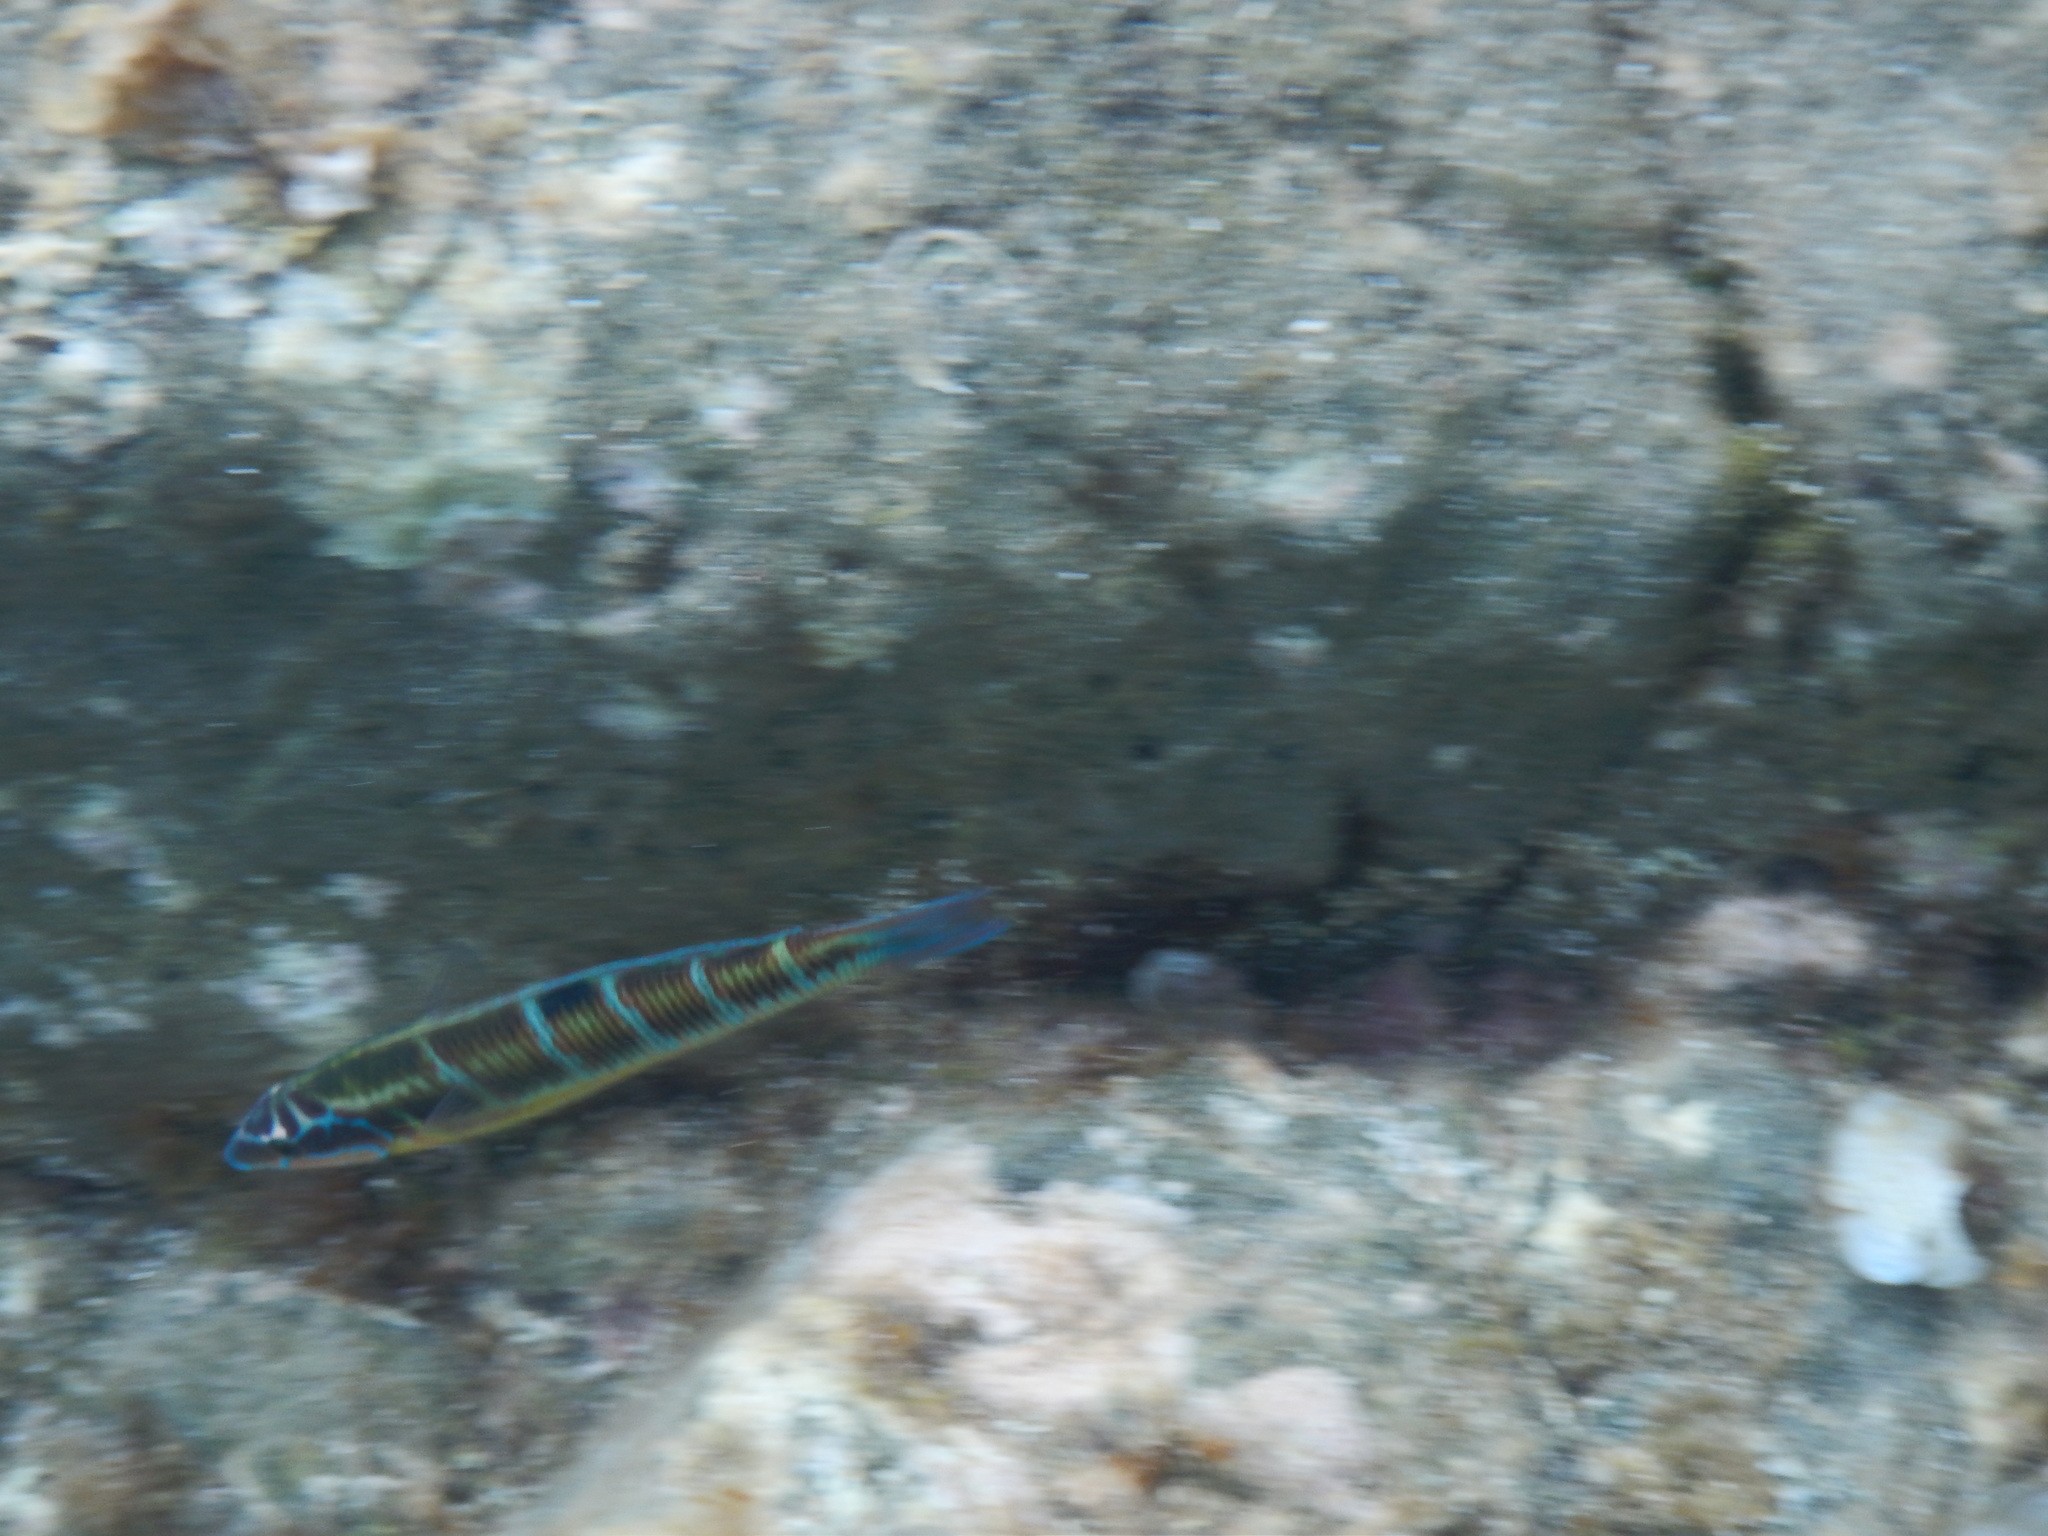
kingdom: Animalia
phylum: Chordata
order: Perciformes
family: Labridae
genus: Thalassoma
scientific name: Thalassoma pavo
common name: Ornate wrasse
